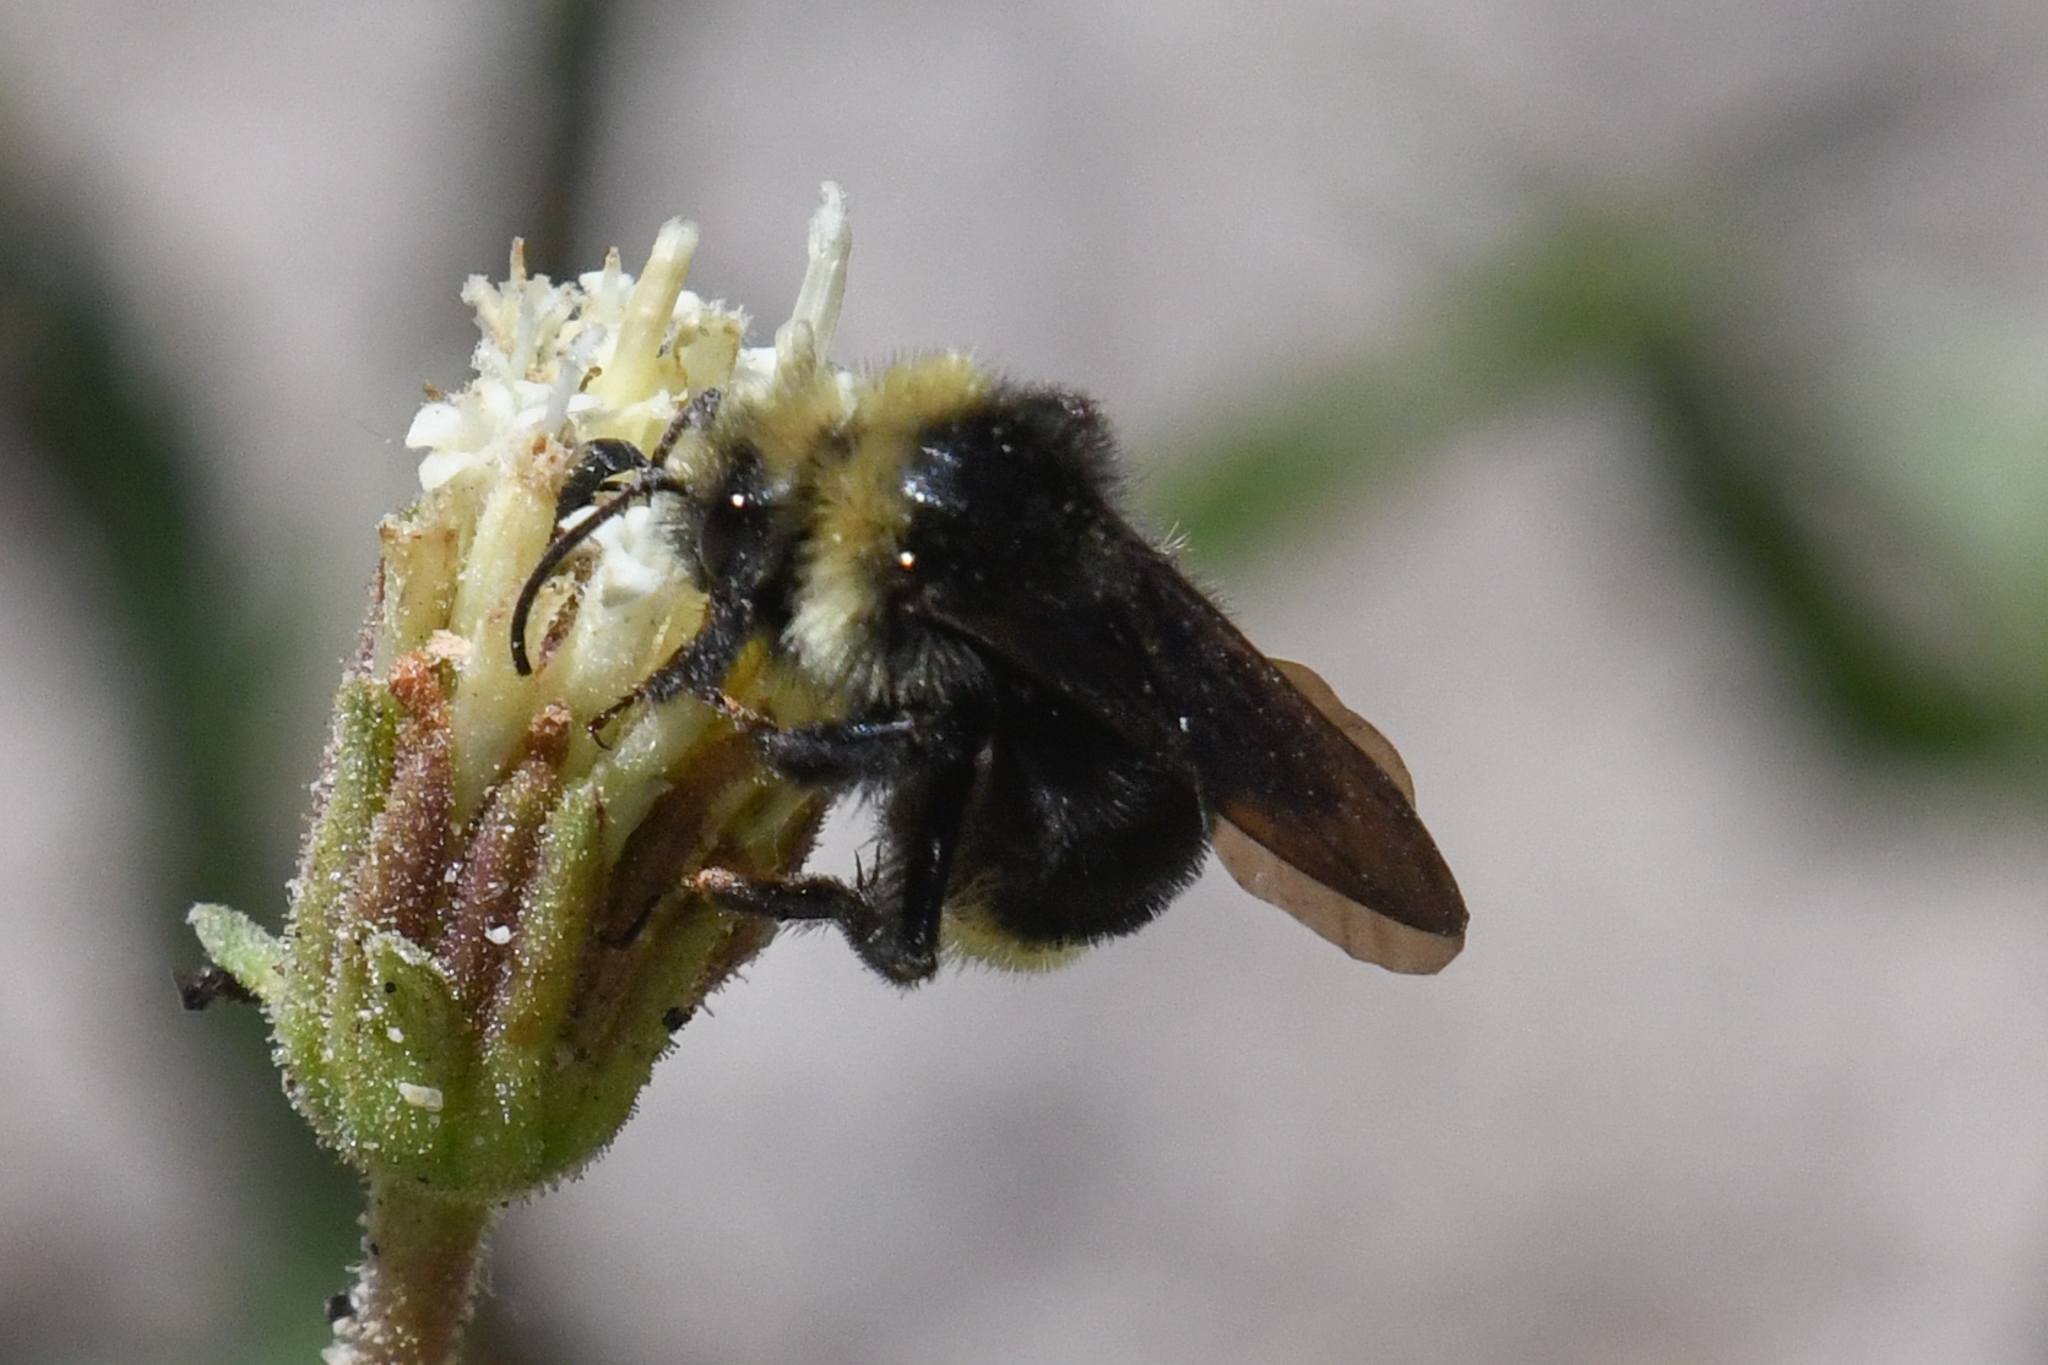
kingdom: Animalia
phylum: Arthropoda
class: Insecta
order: Hymenoptera
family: Apidae
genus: Bombus
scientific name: Bombus vosnesenskii
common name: Vosnesensky bumble bee
